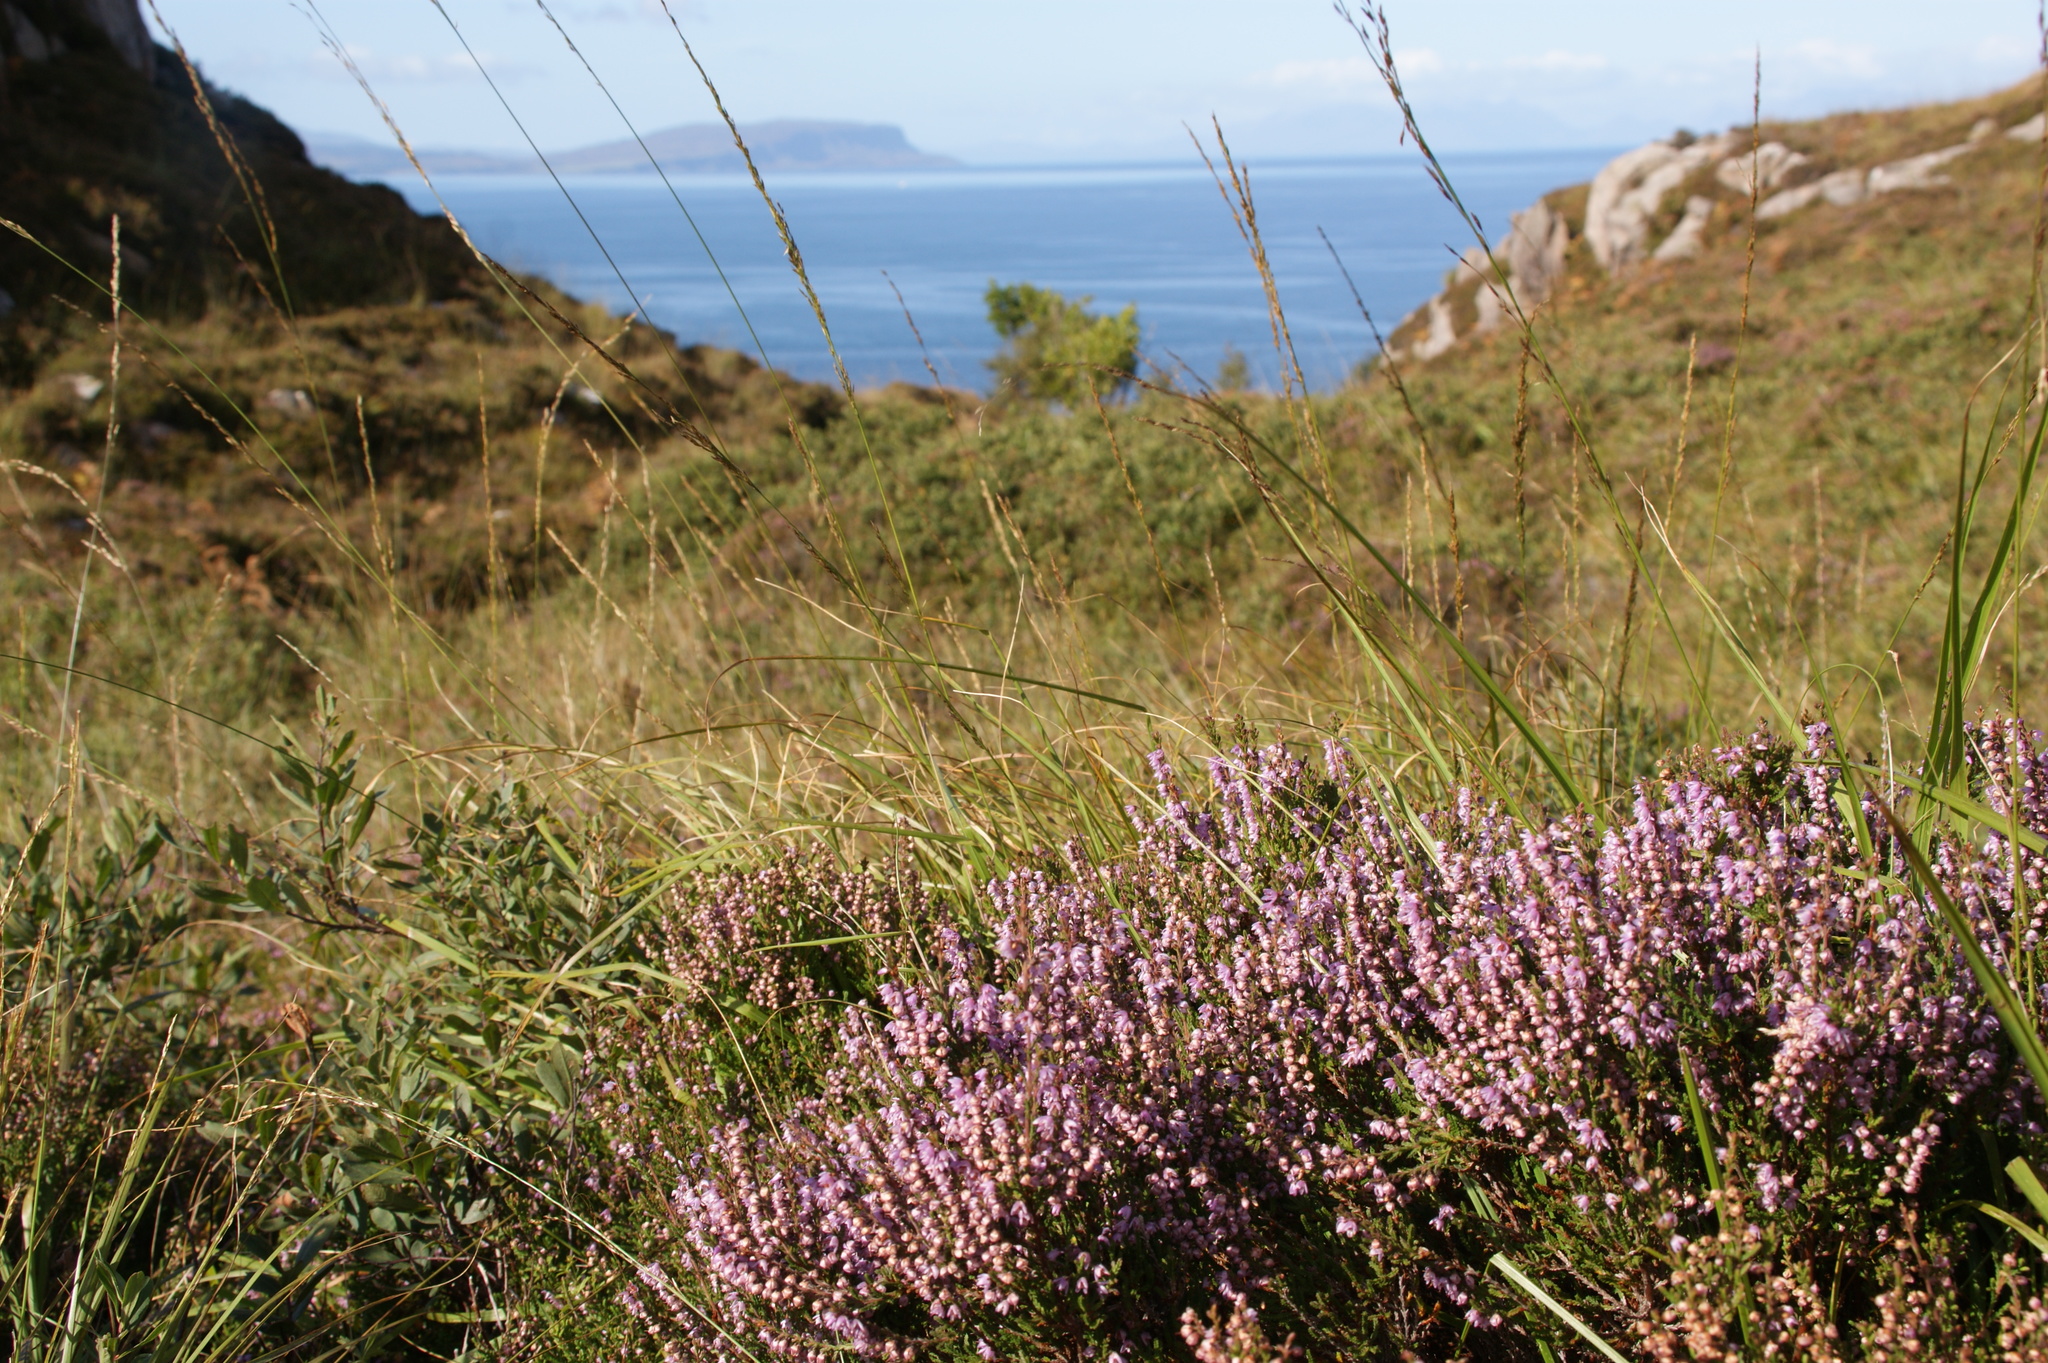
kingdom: Plantae
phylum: Tracheophyta
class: Magnoliopsida
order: Ericales
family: Ericaceae
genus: Calluna
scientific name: Calluna vulgaris
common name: Heather
